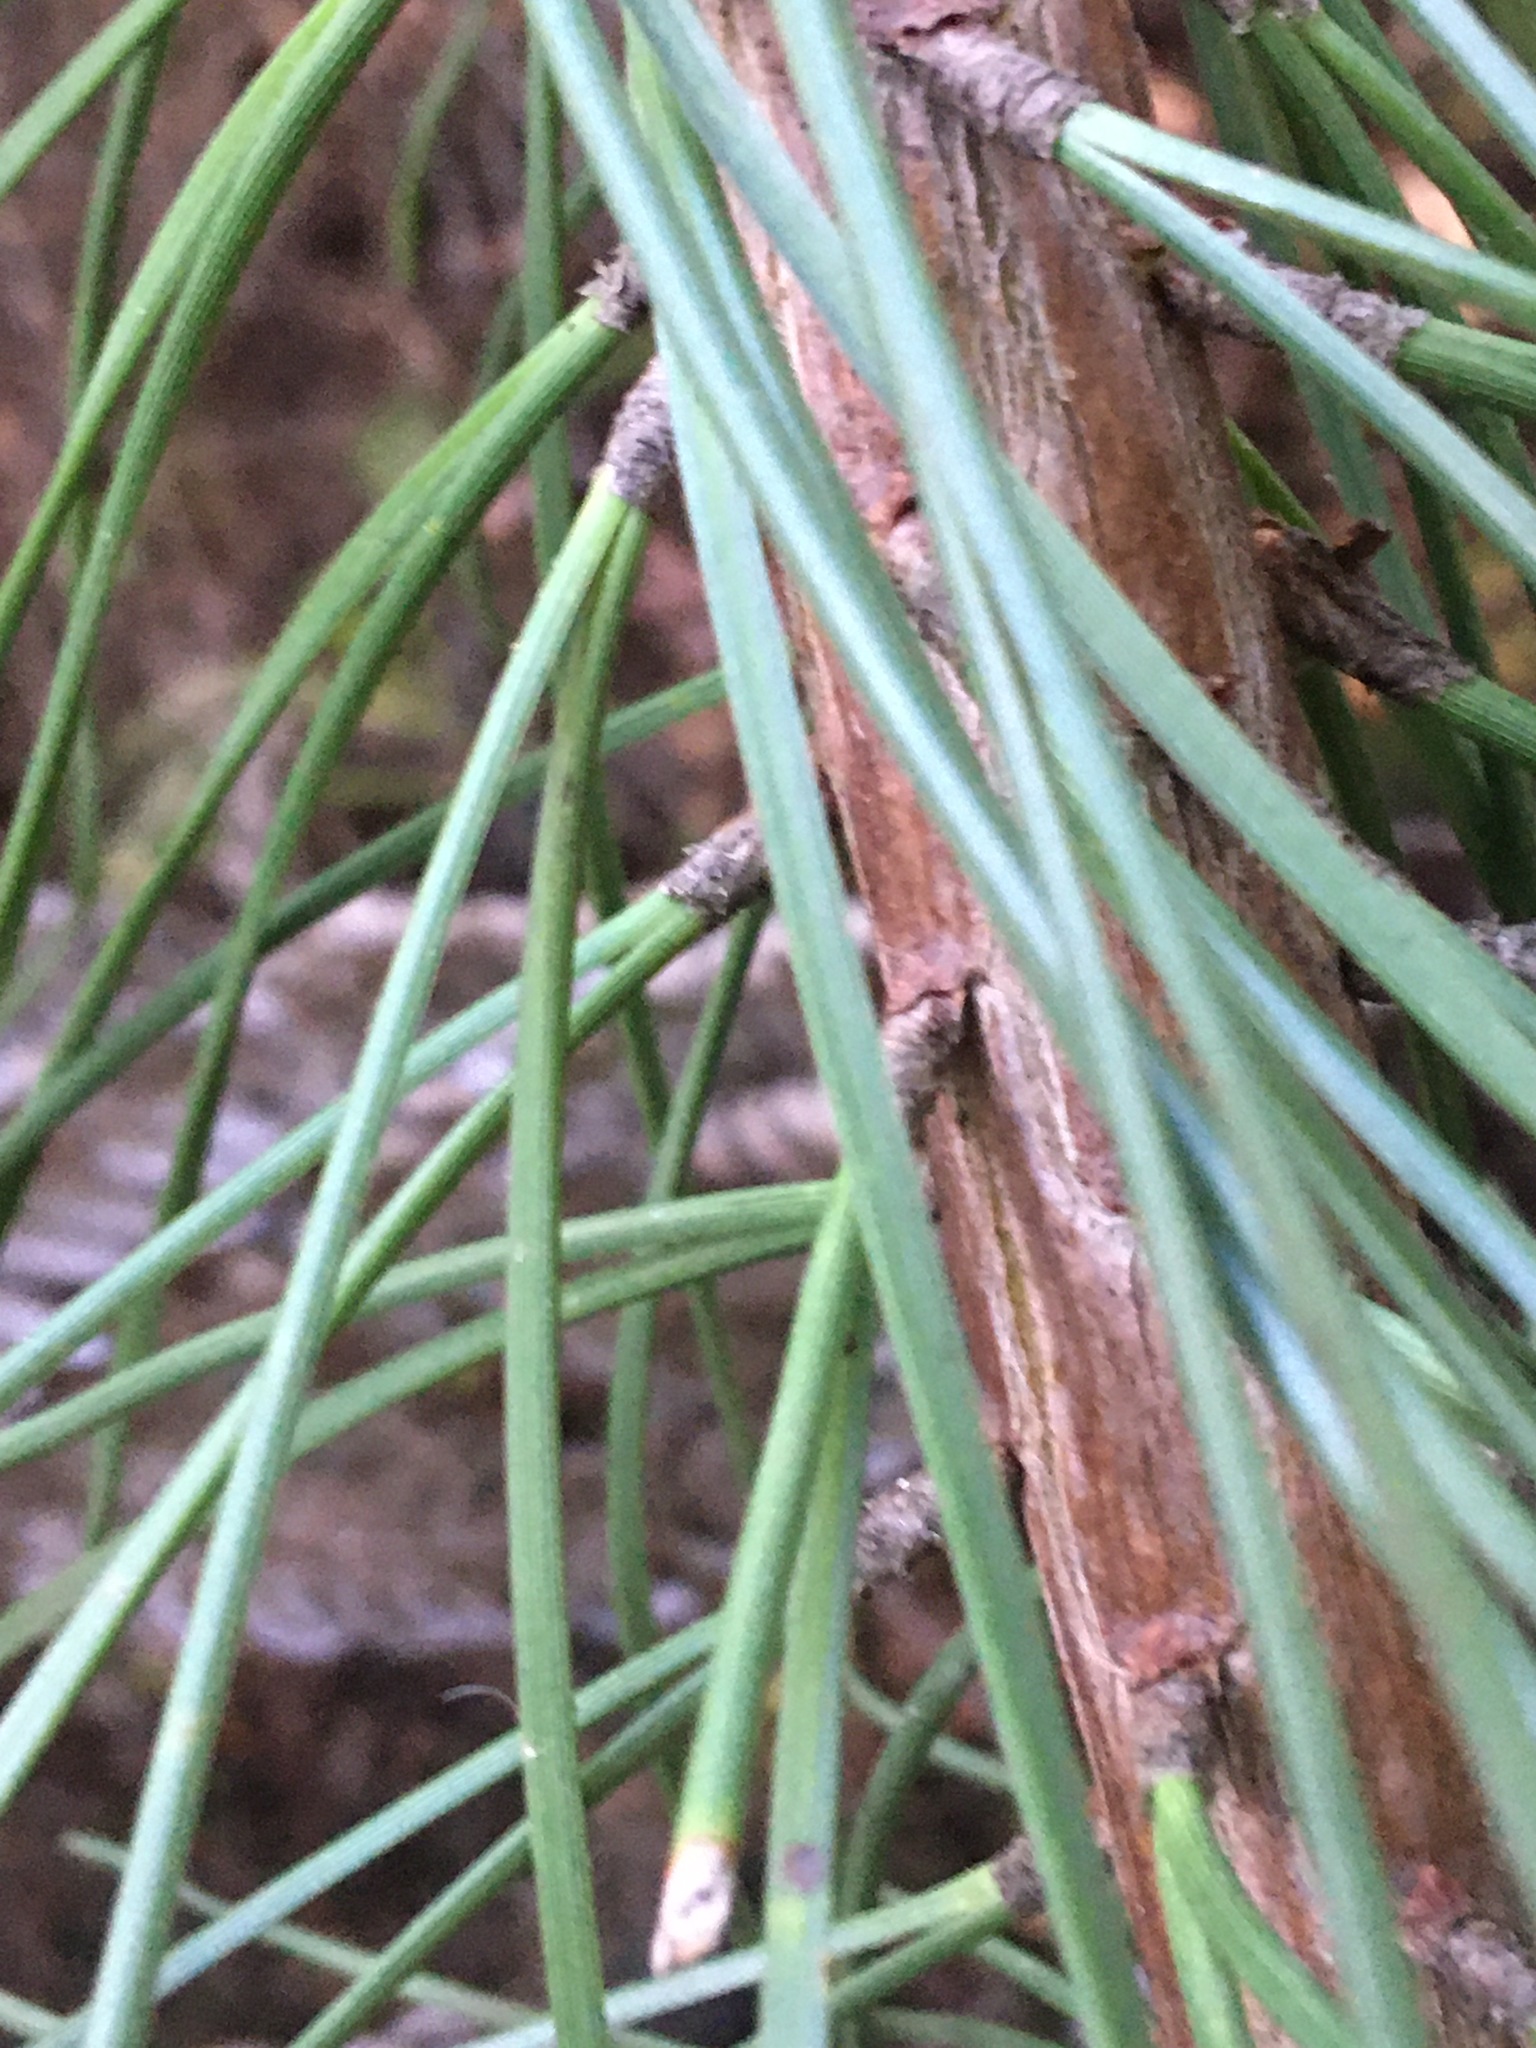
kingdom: Plantae
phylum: Tracheophyta
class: Pinopsida
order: Pinales
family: Pinaceae
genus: Pinus
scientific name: Pinus pinaster
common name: Maritime pine
